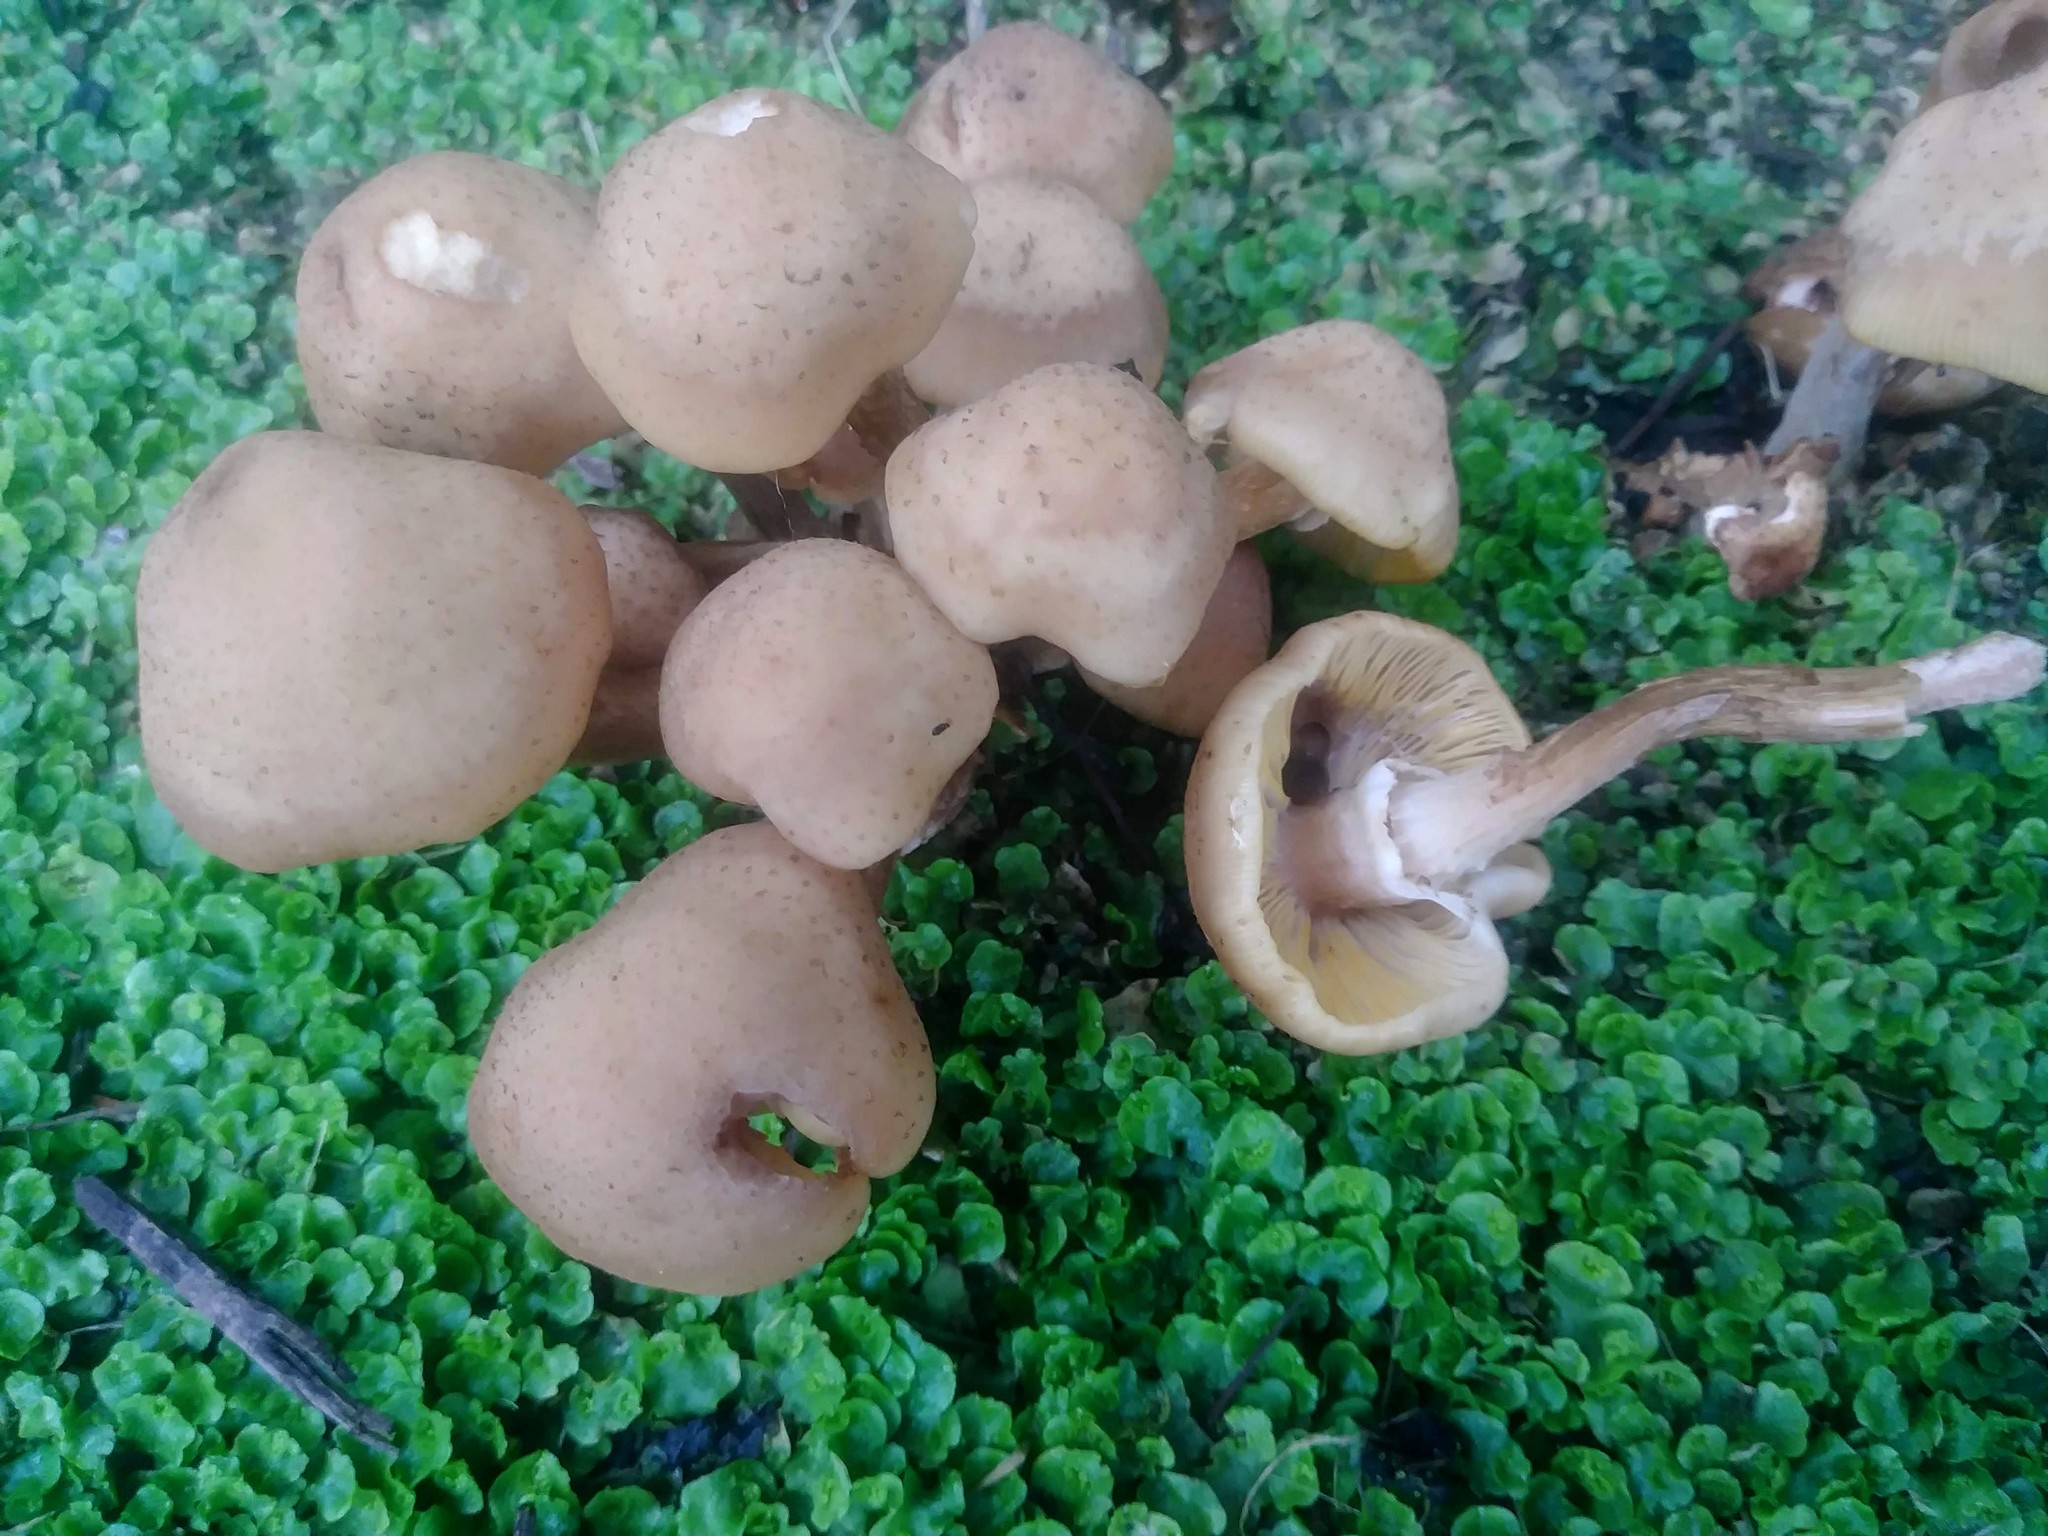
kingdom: Fungi
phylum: Basidiomycota
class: Agaricomycetes
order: Agaricales
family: Physalacriaceae
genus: Armillaria
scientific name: Armillaria mellea
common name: Honey fungus
